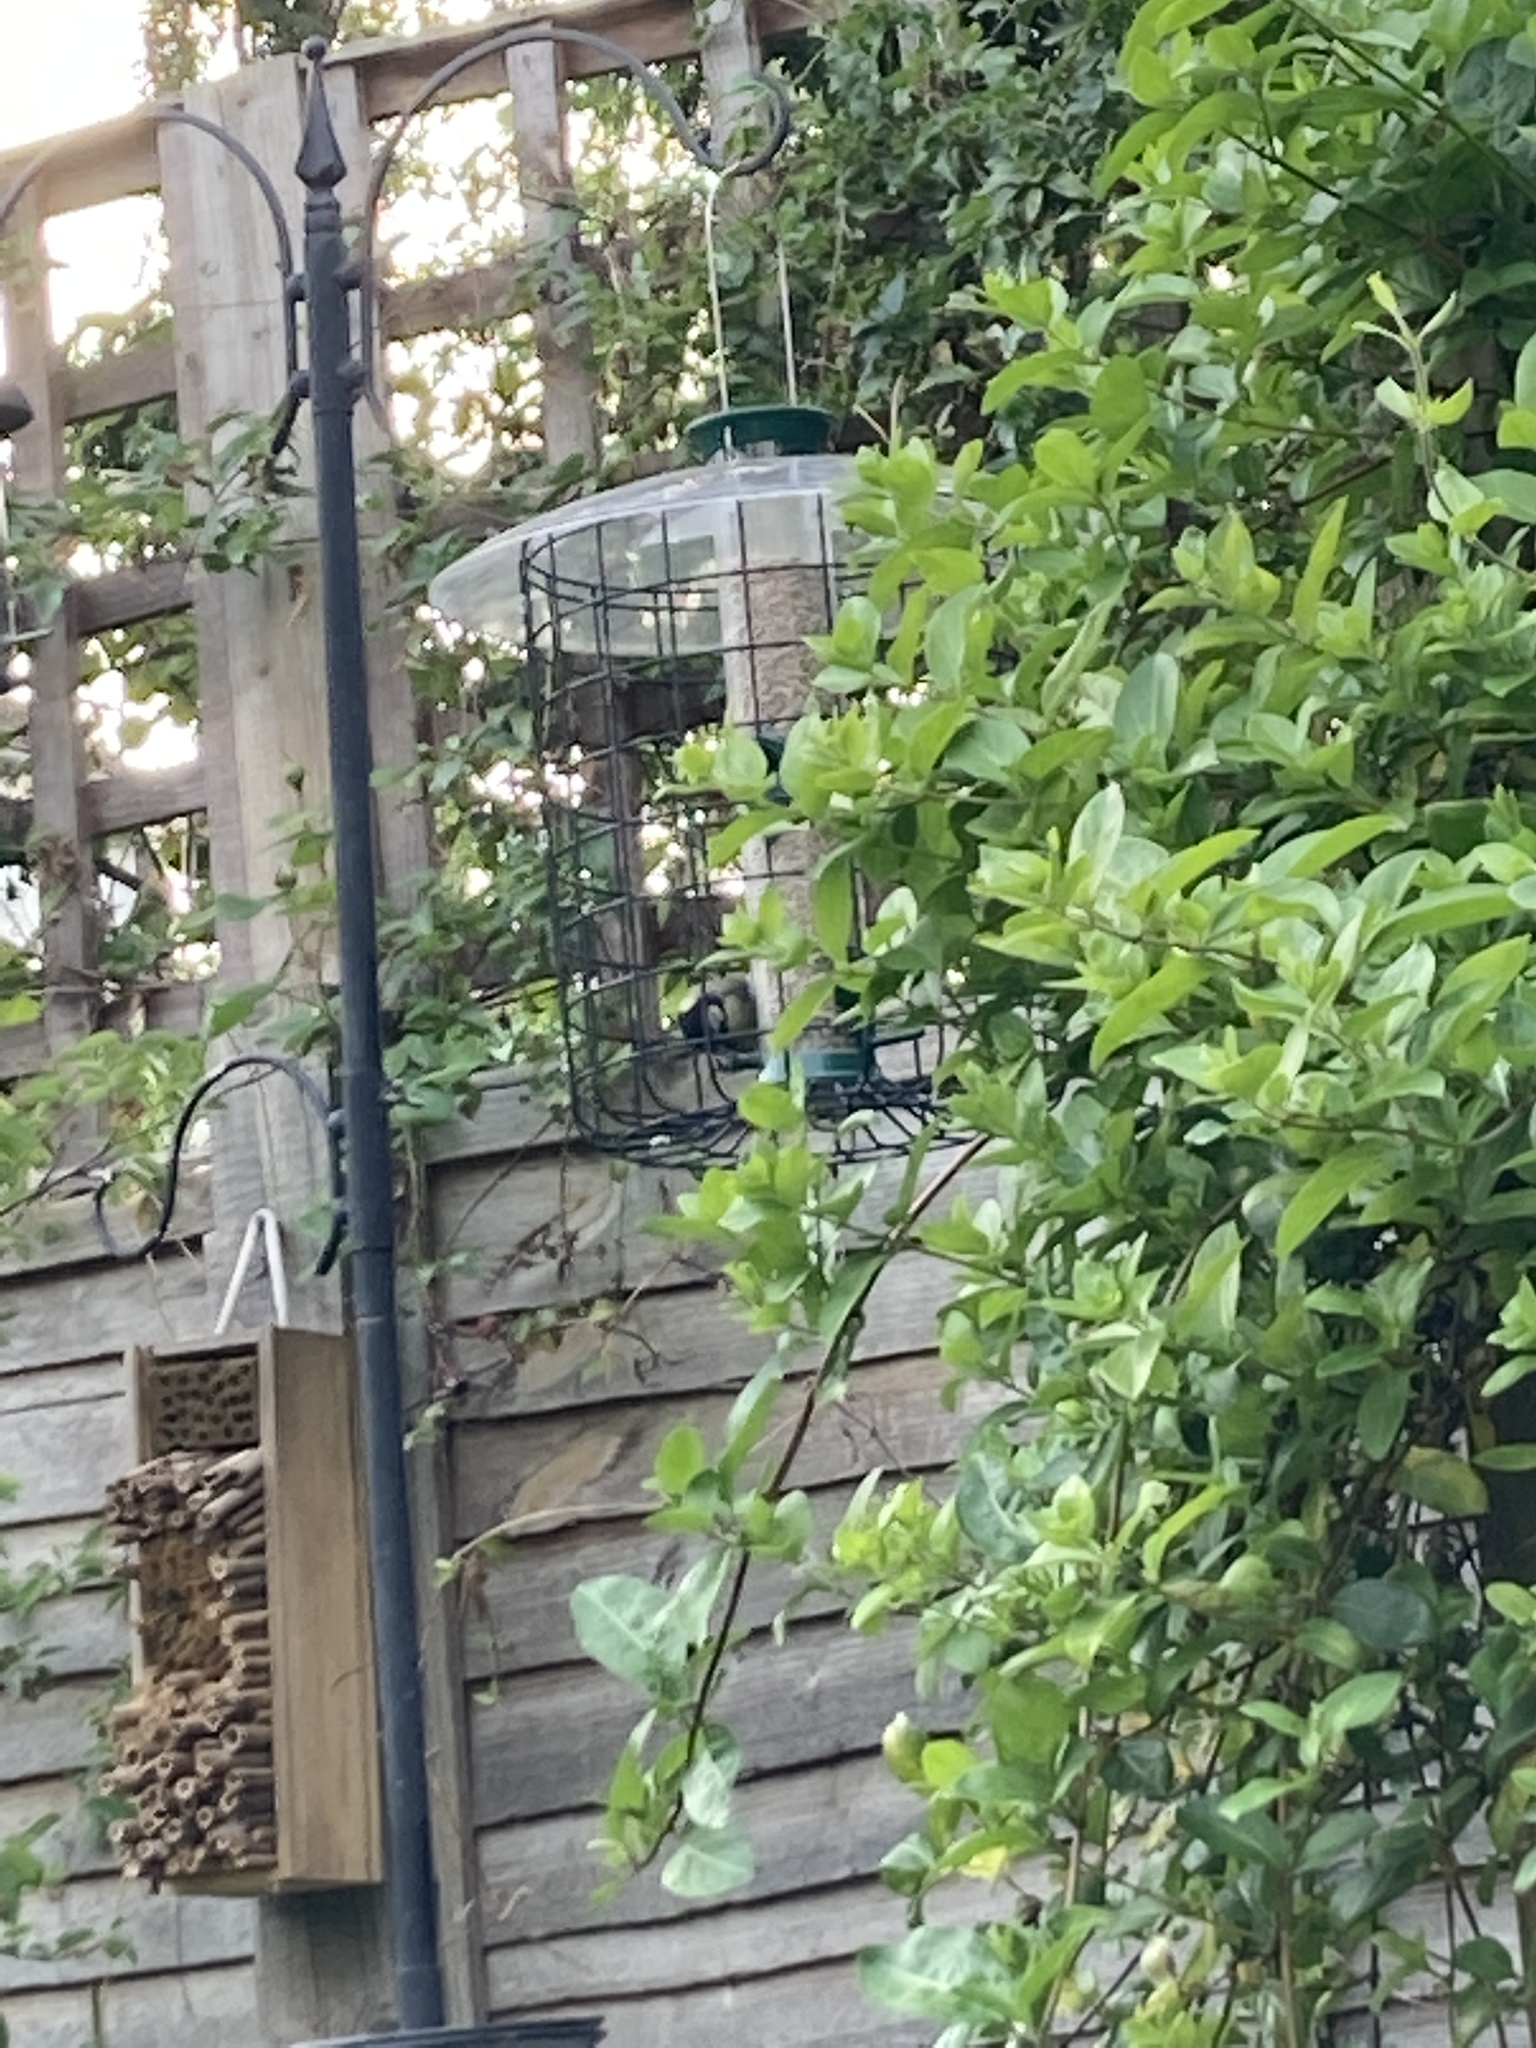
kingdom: Animalia
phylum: Chordata
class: Aves
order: Passeriformes
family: Paridae
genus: Parus
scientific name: Parus major
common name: Great tit
